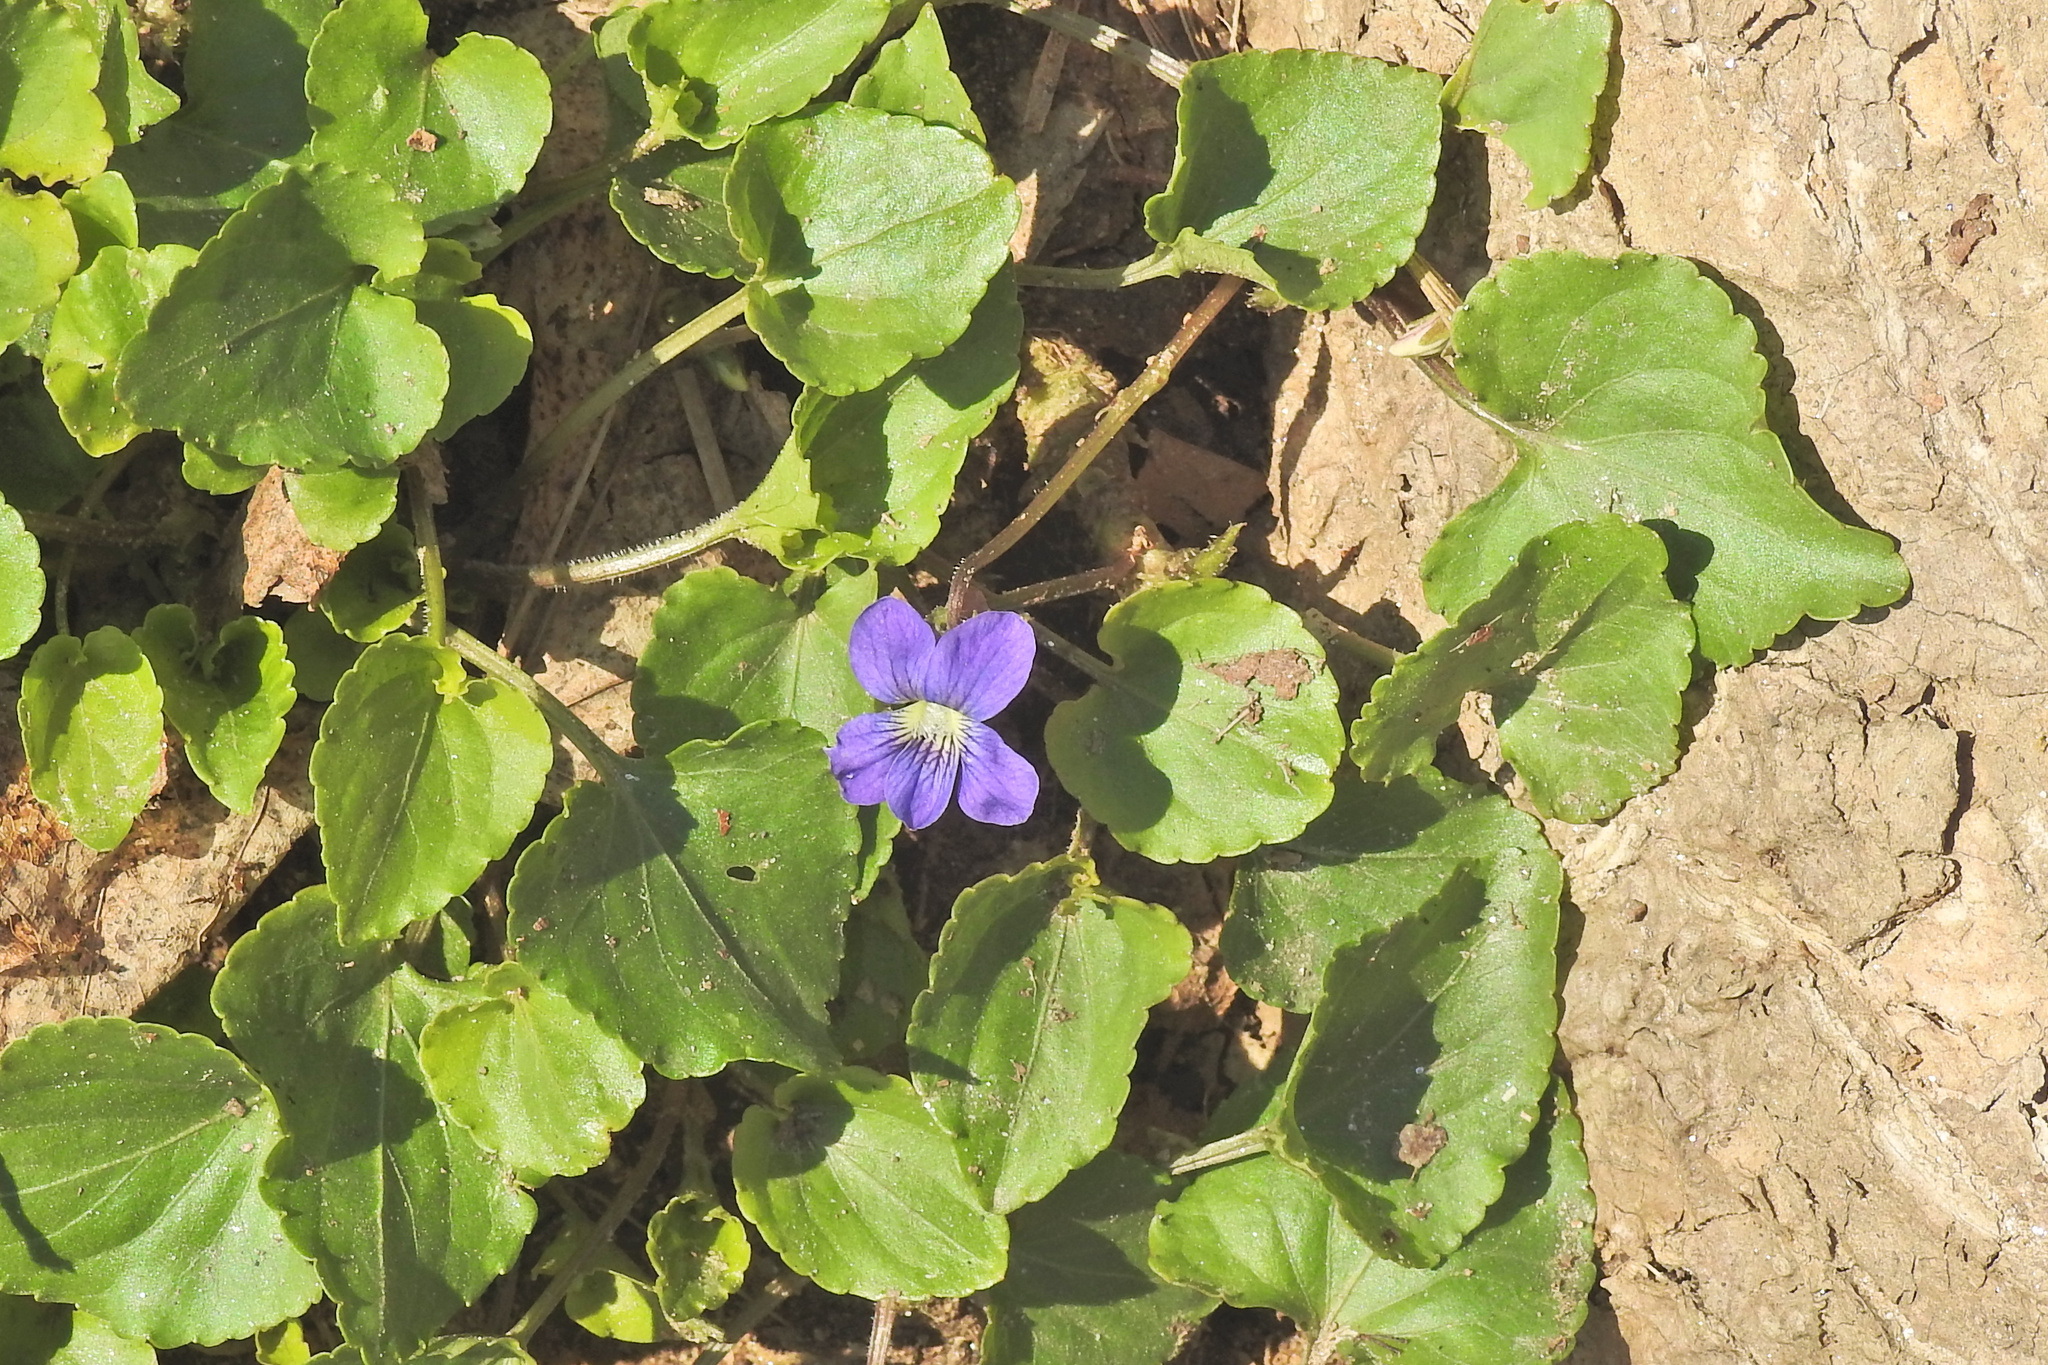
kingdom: Plantae
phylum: Tracheophyta
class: Magnoliopsida
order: Malpighiales
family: Violaceae
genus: Viola
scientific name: Viola sororia
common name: Dooryard violet
